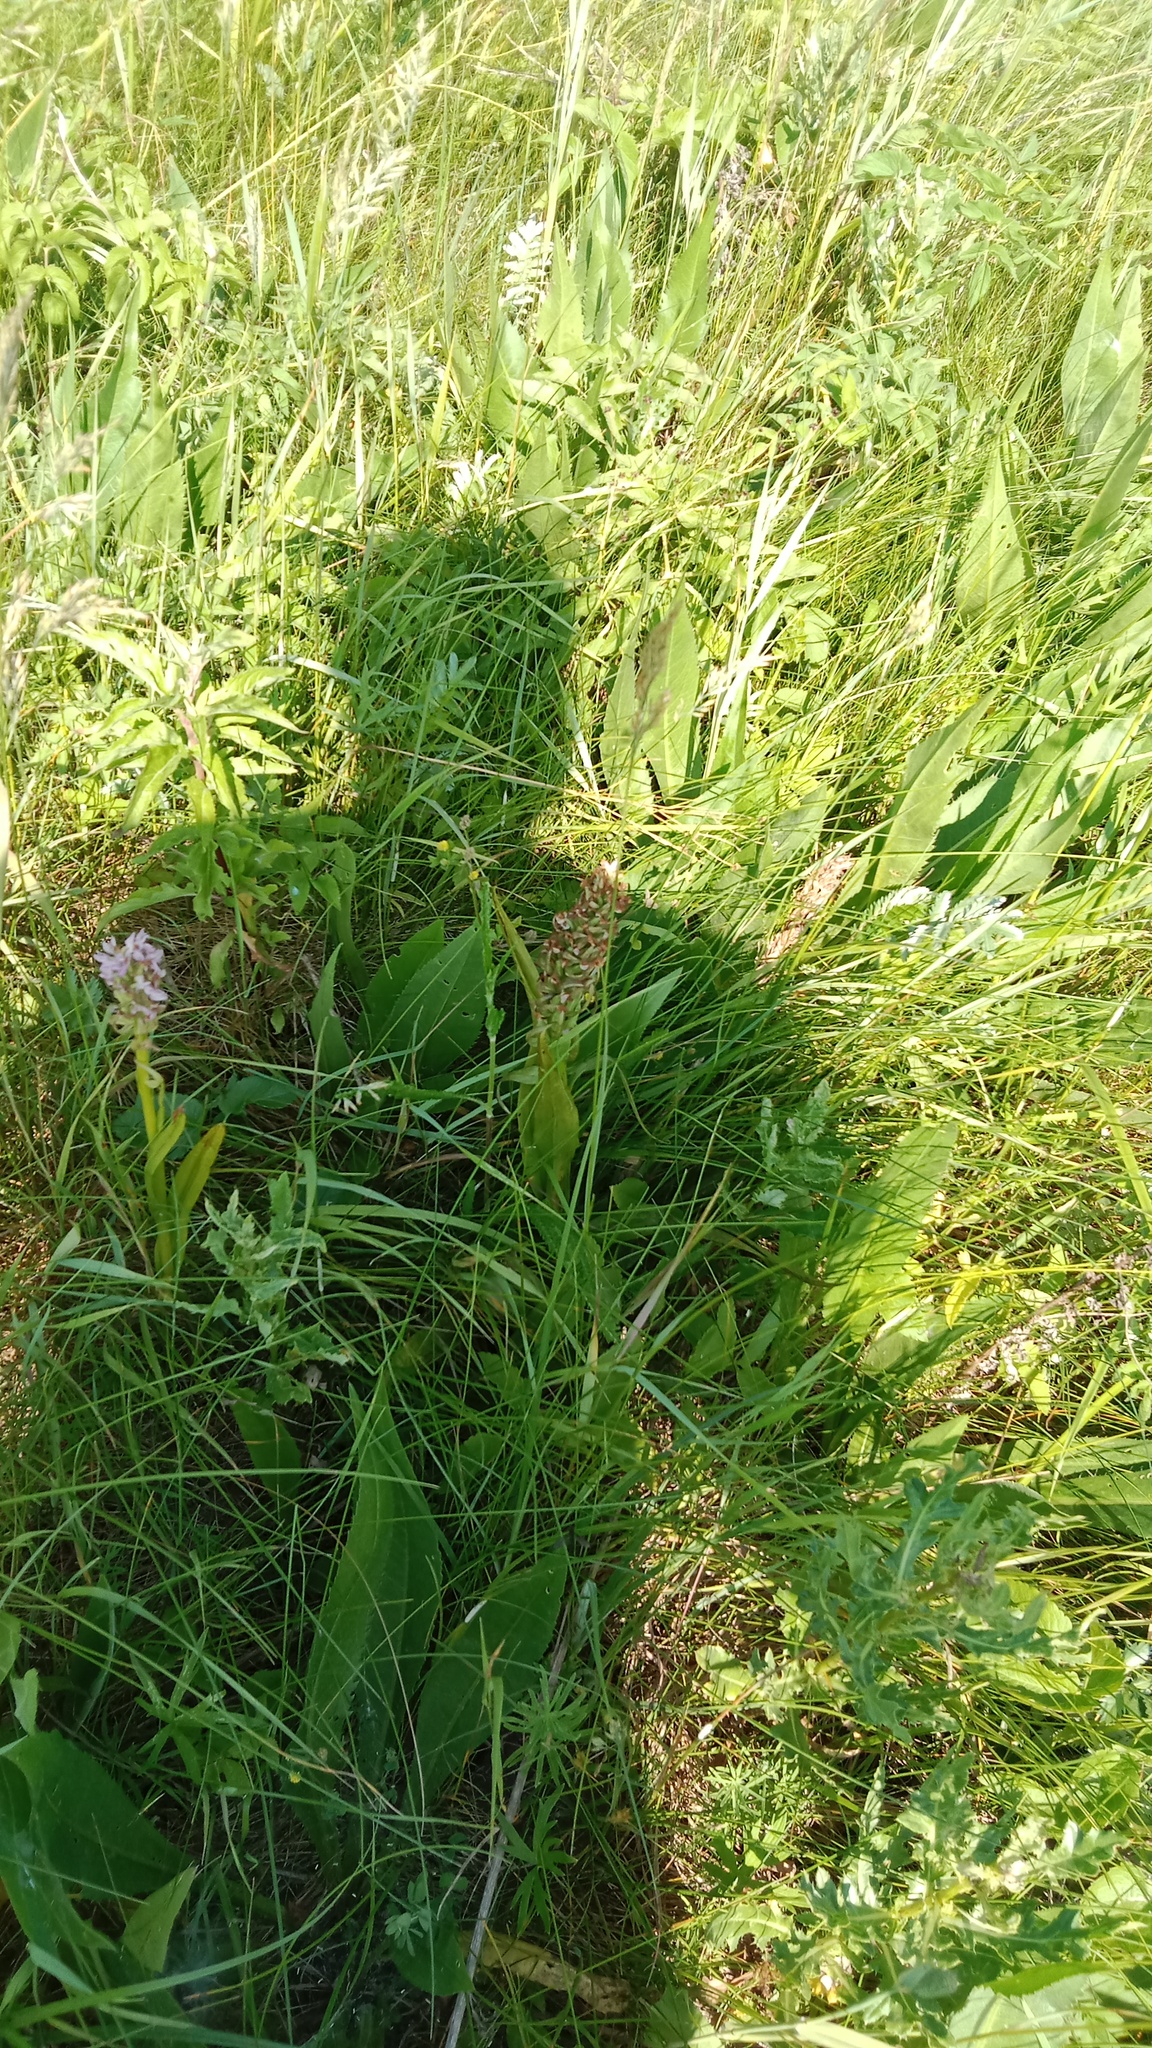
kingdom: Plantae
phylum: Tracheophyta
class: Liliopsida
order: Asparagales
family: Orchidaceae
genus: Dactylorhiza
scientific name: Dactylorhiza incarnata
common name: Early marsh-orchid
